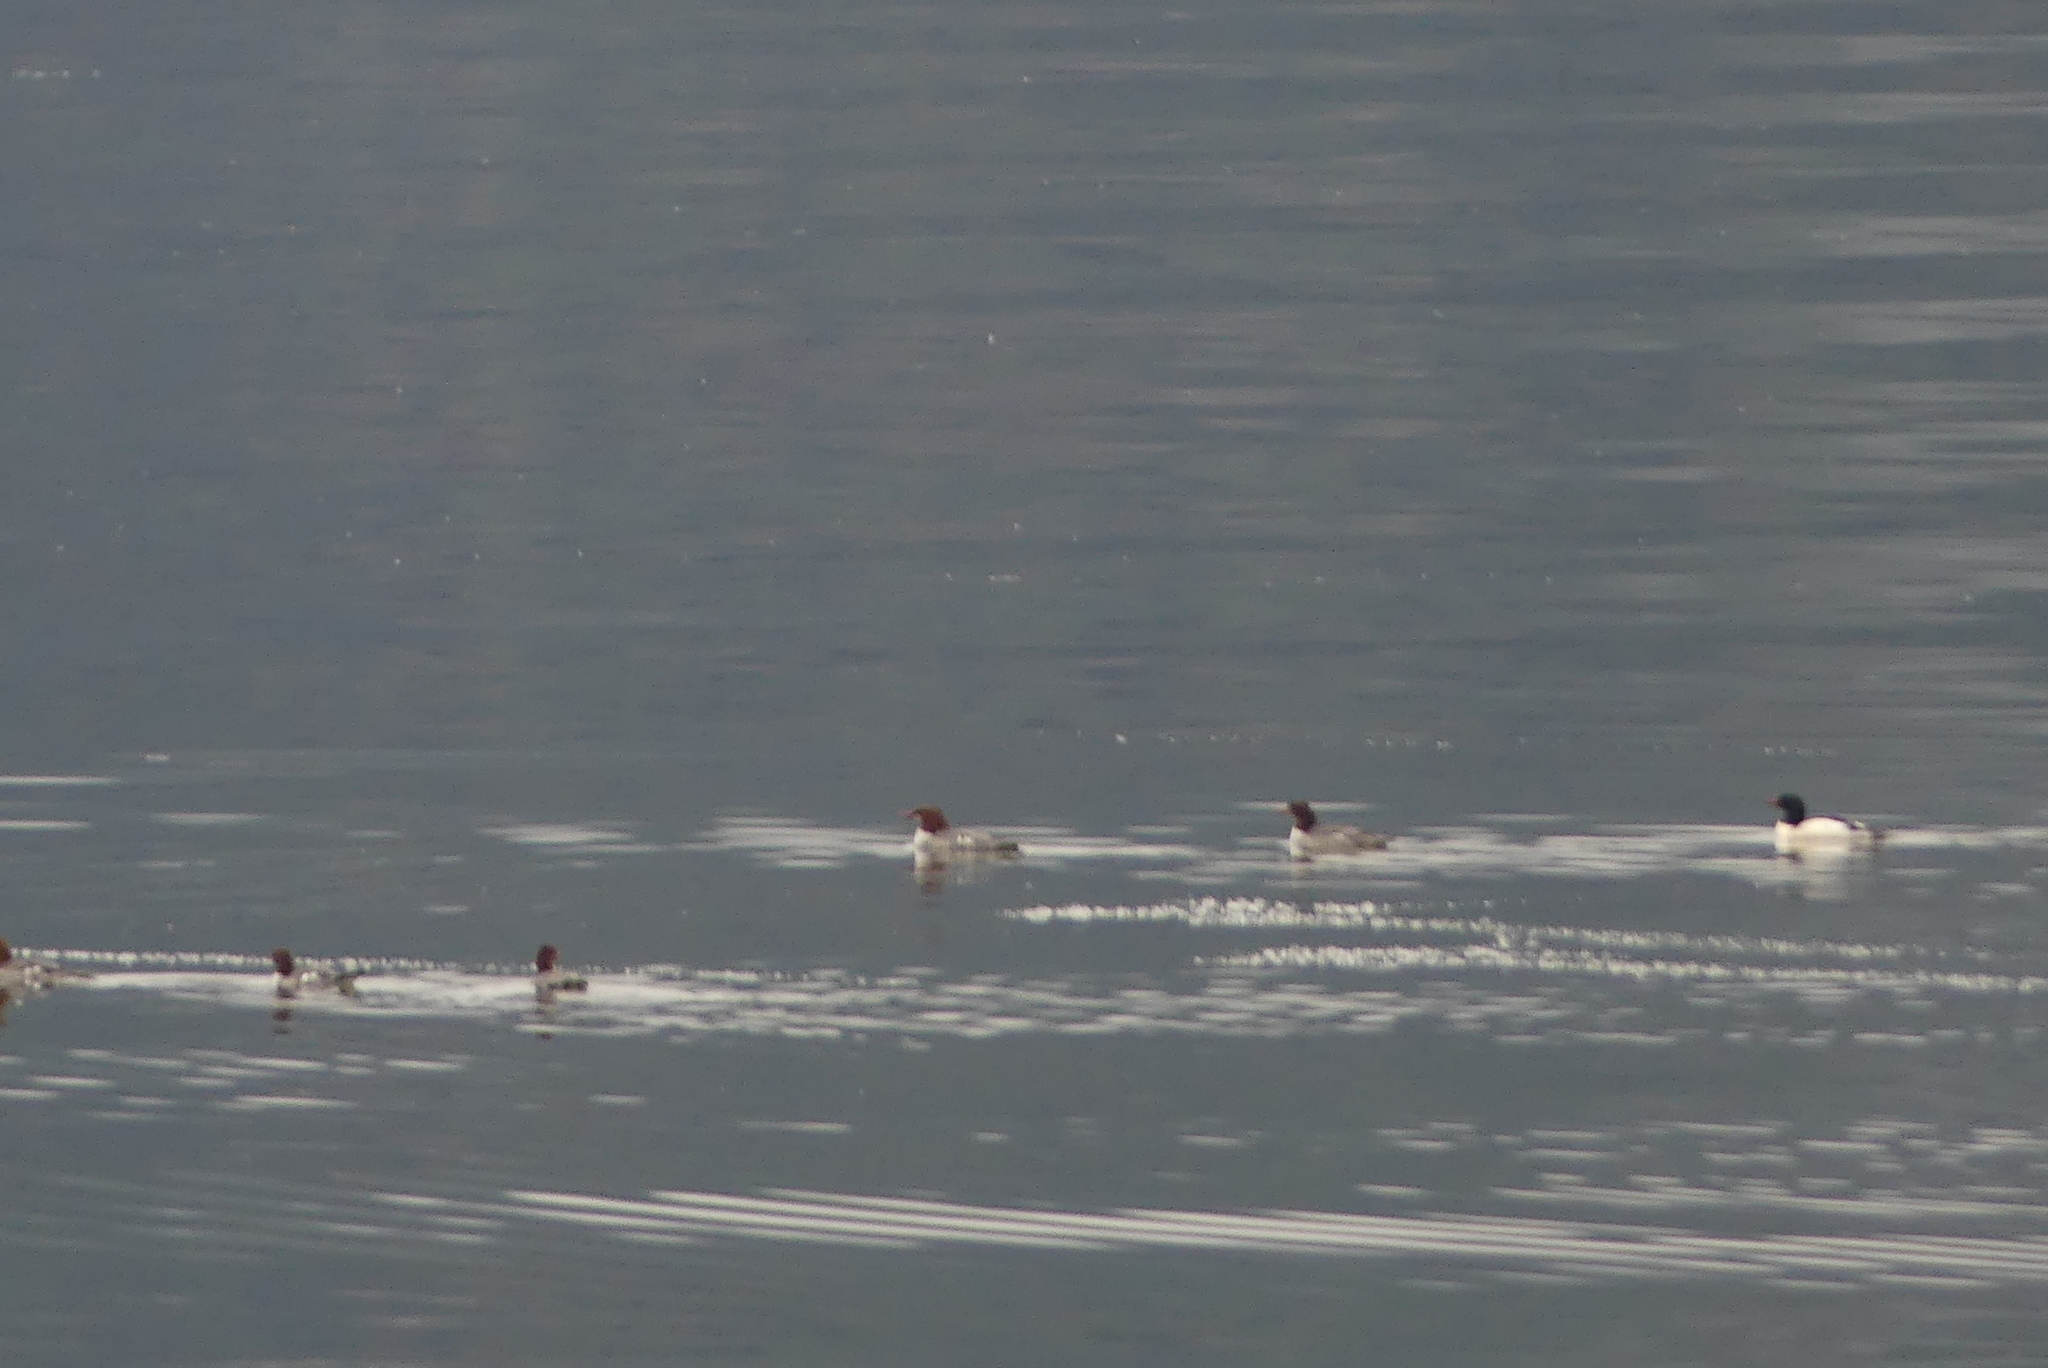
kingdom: Animalia
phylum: Chordata
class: Aves
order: Anseriformes
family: Anatidae
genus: Mergus
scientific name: Mergus merganser
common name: Common merganser
